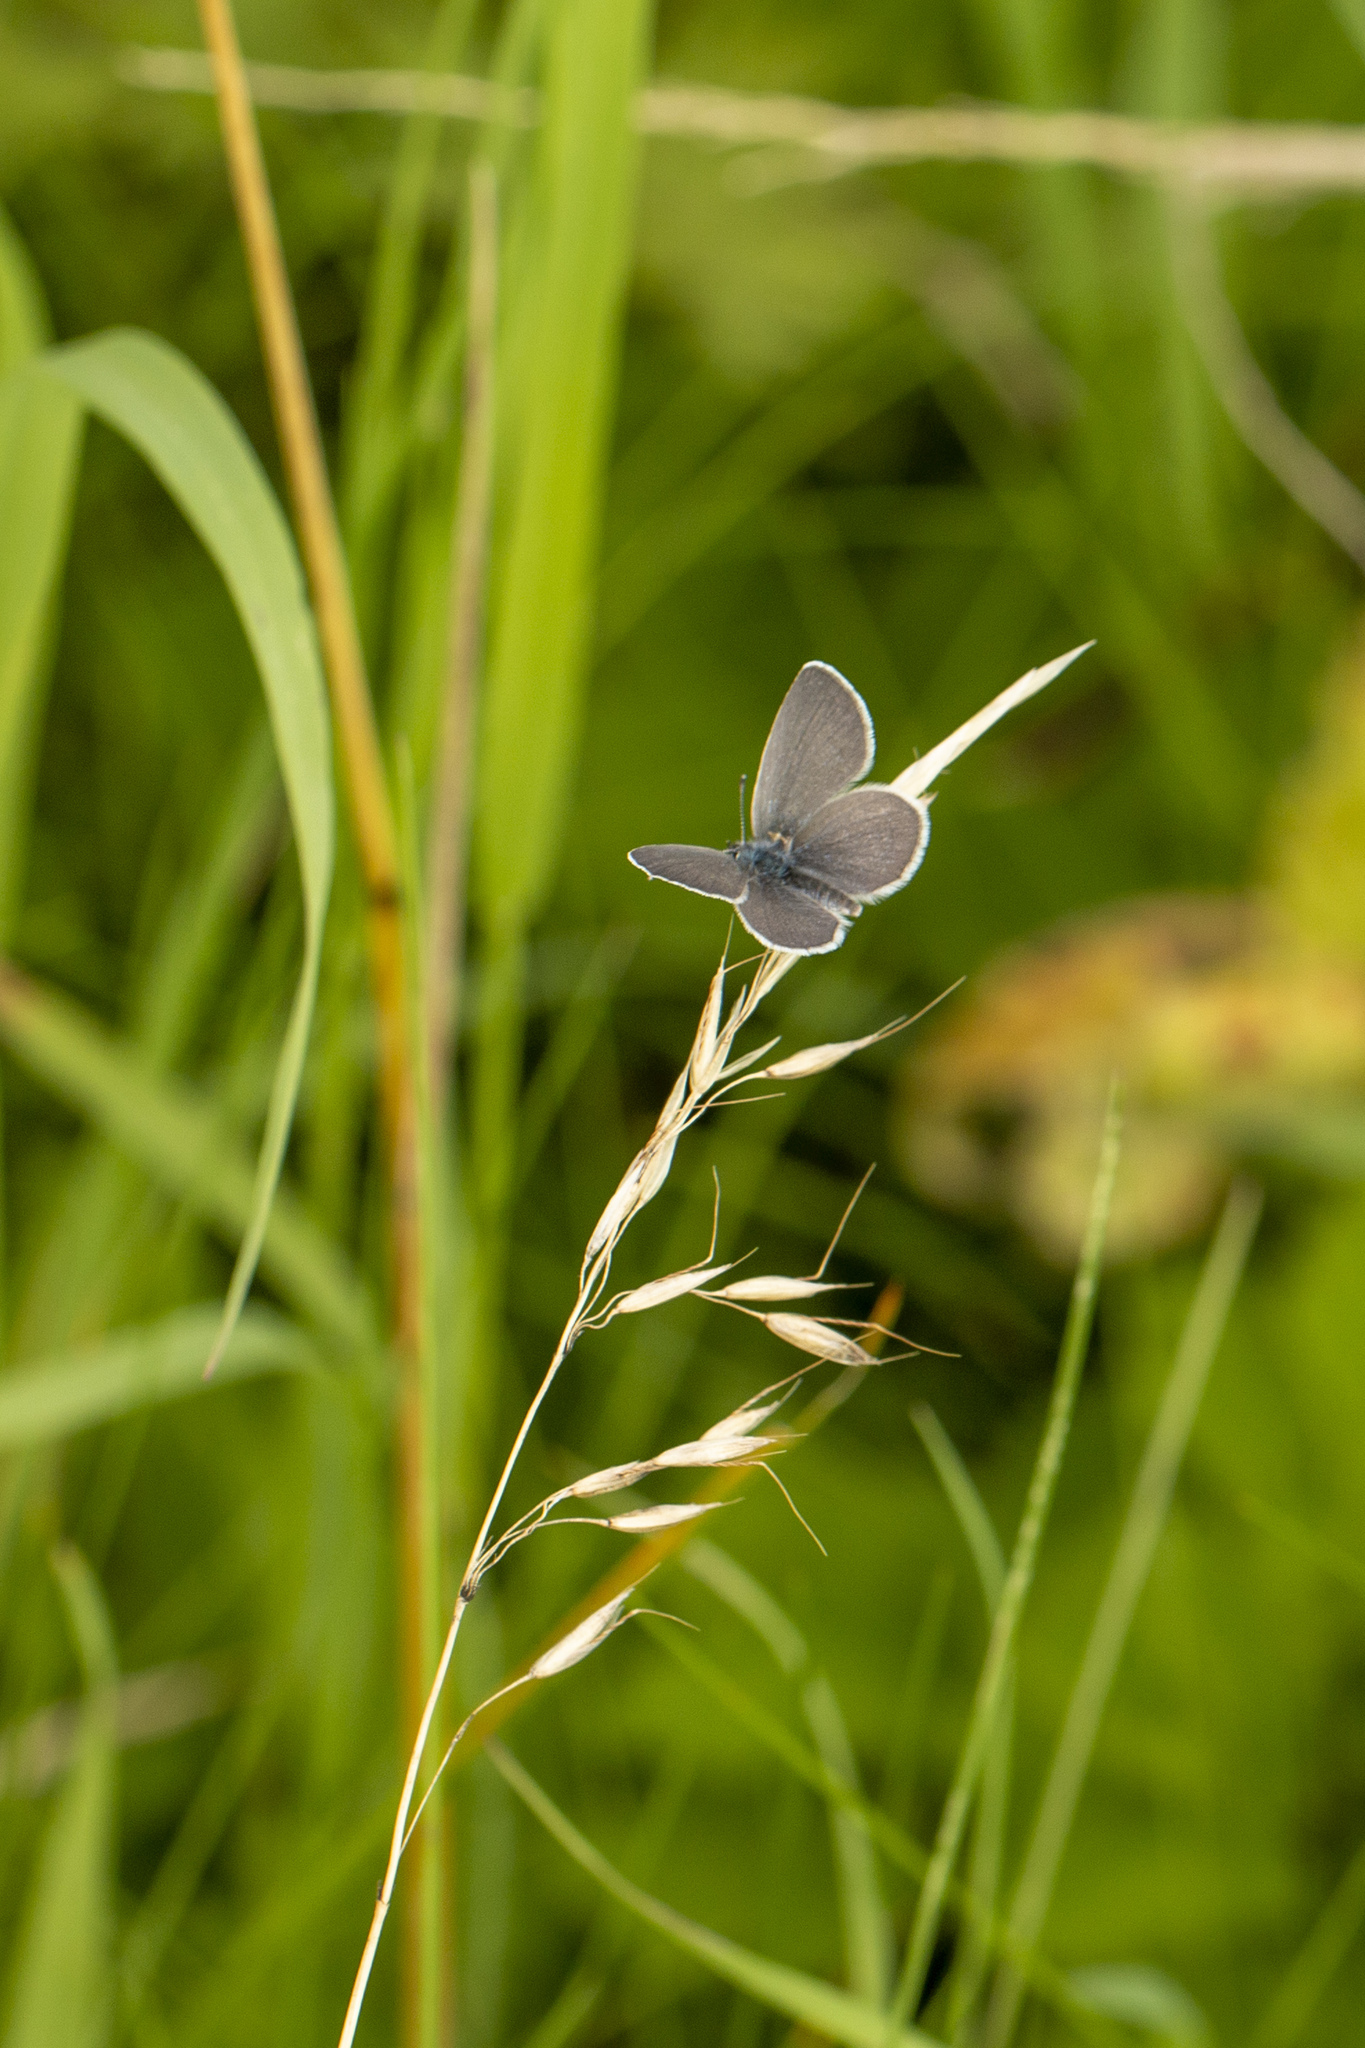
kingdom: Animalia
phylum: Arthropoda
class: Insecta
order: Lepidoptera
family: Lycaenidae
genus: Cupido
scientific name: Cupido minimus
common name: Small blue
